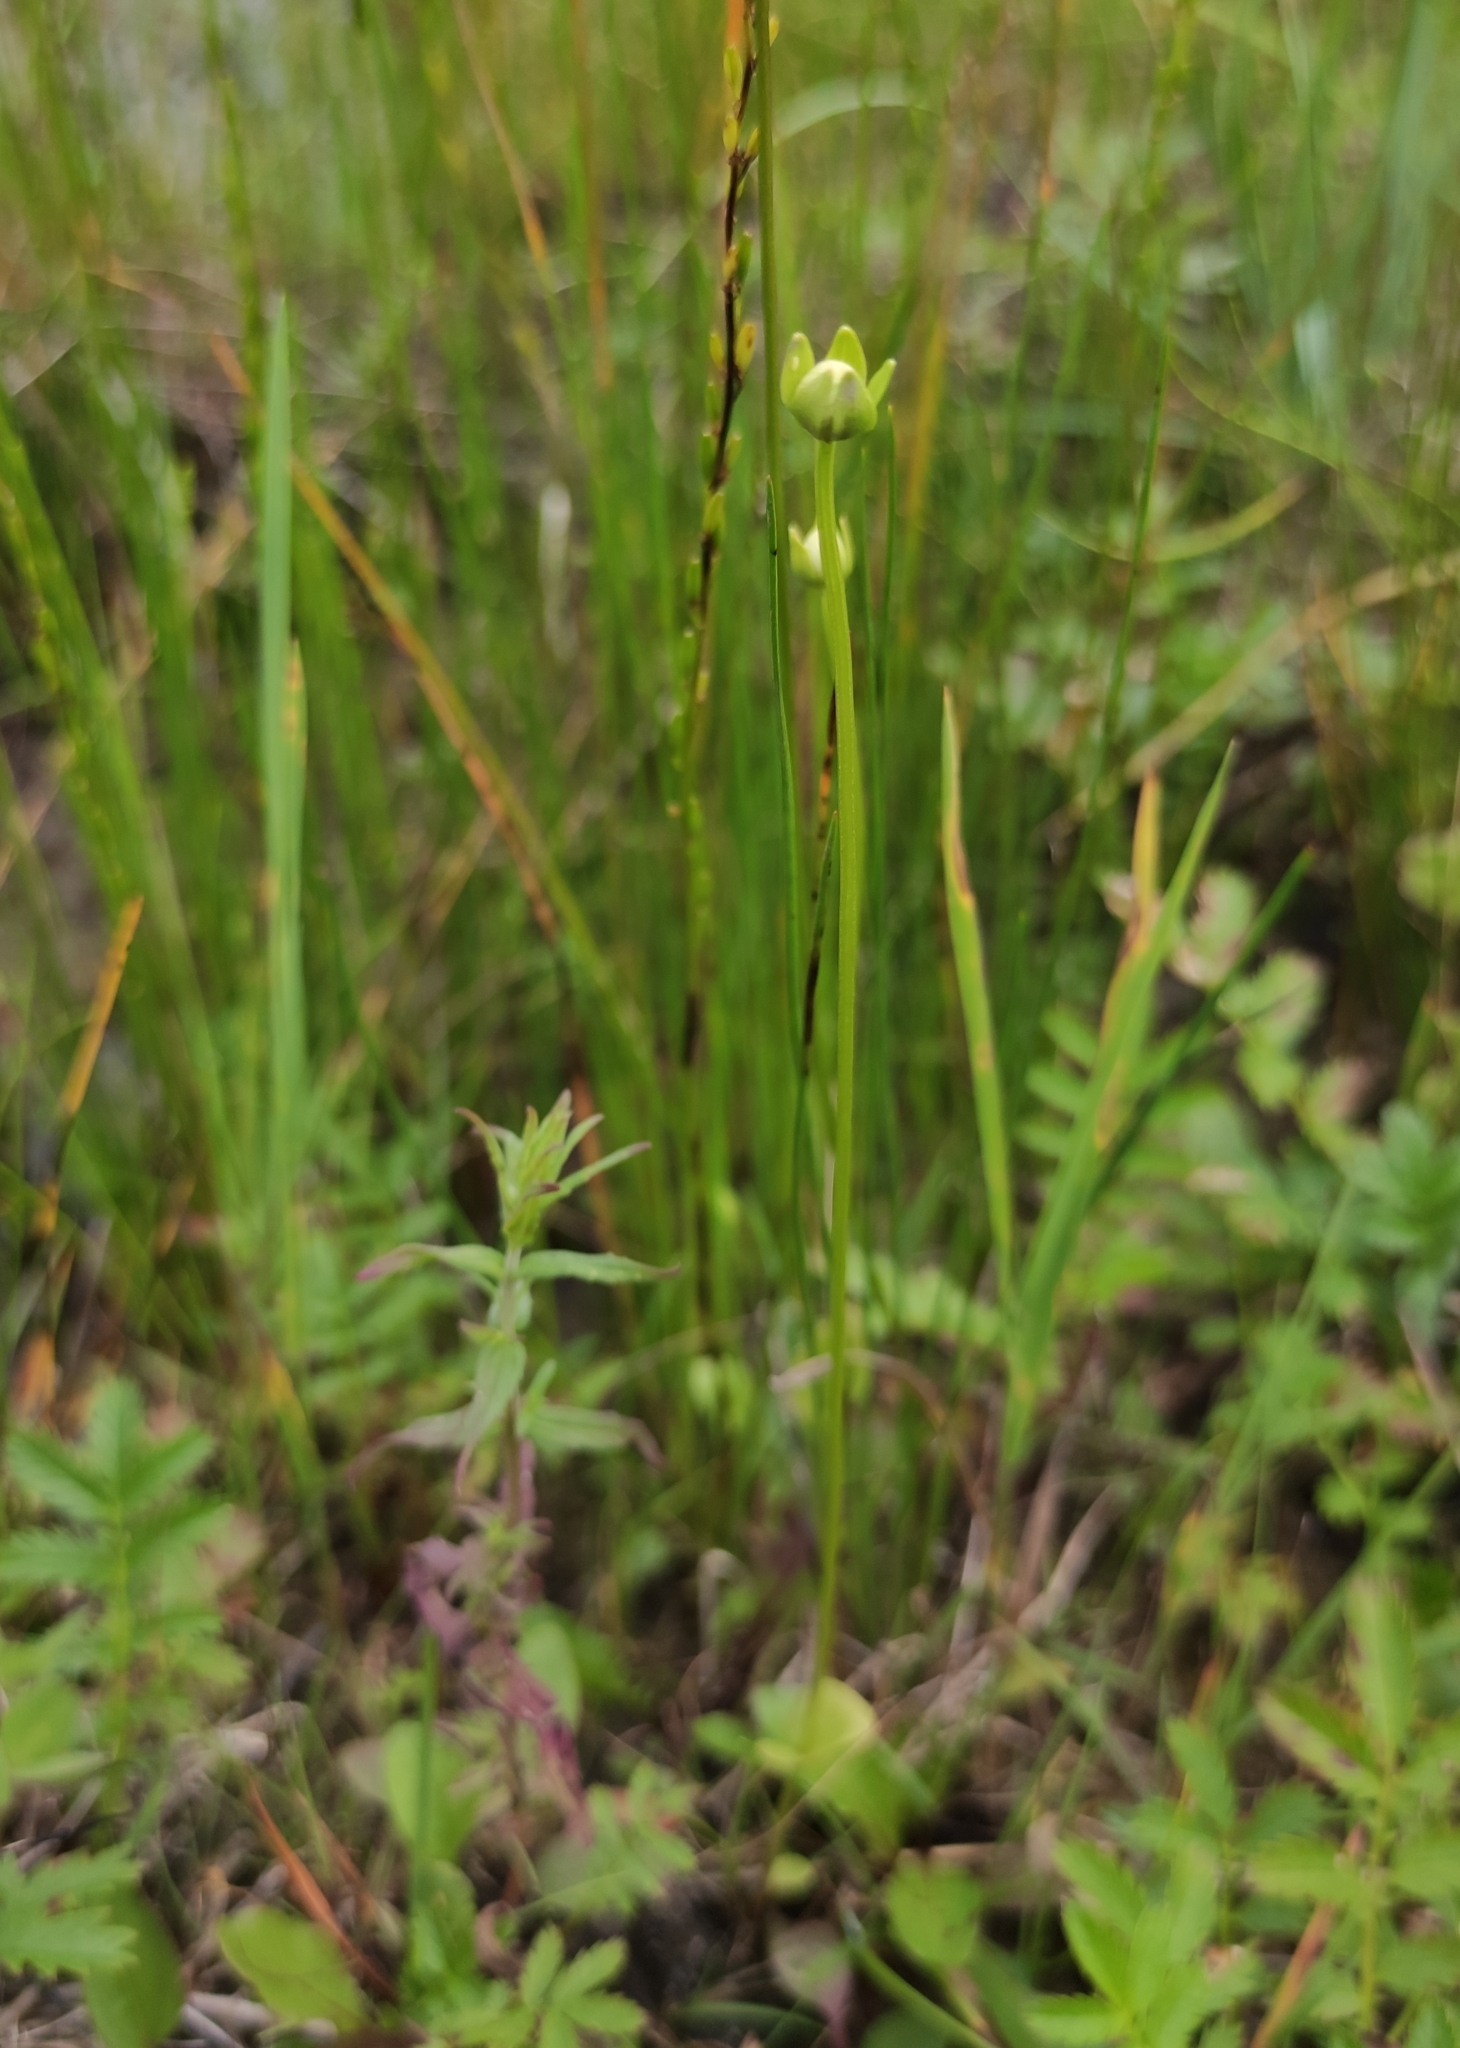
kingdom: Plantae
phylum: Tracheophyta
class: Magnoliopsida
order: Celastrales
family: Parnassiaceae
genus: Parnassia
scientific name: Parnassia palustris
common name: Grass-of-parnassus
